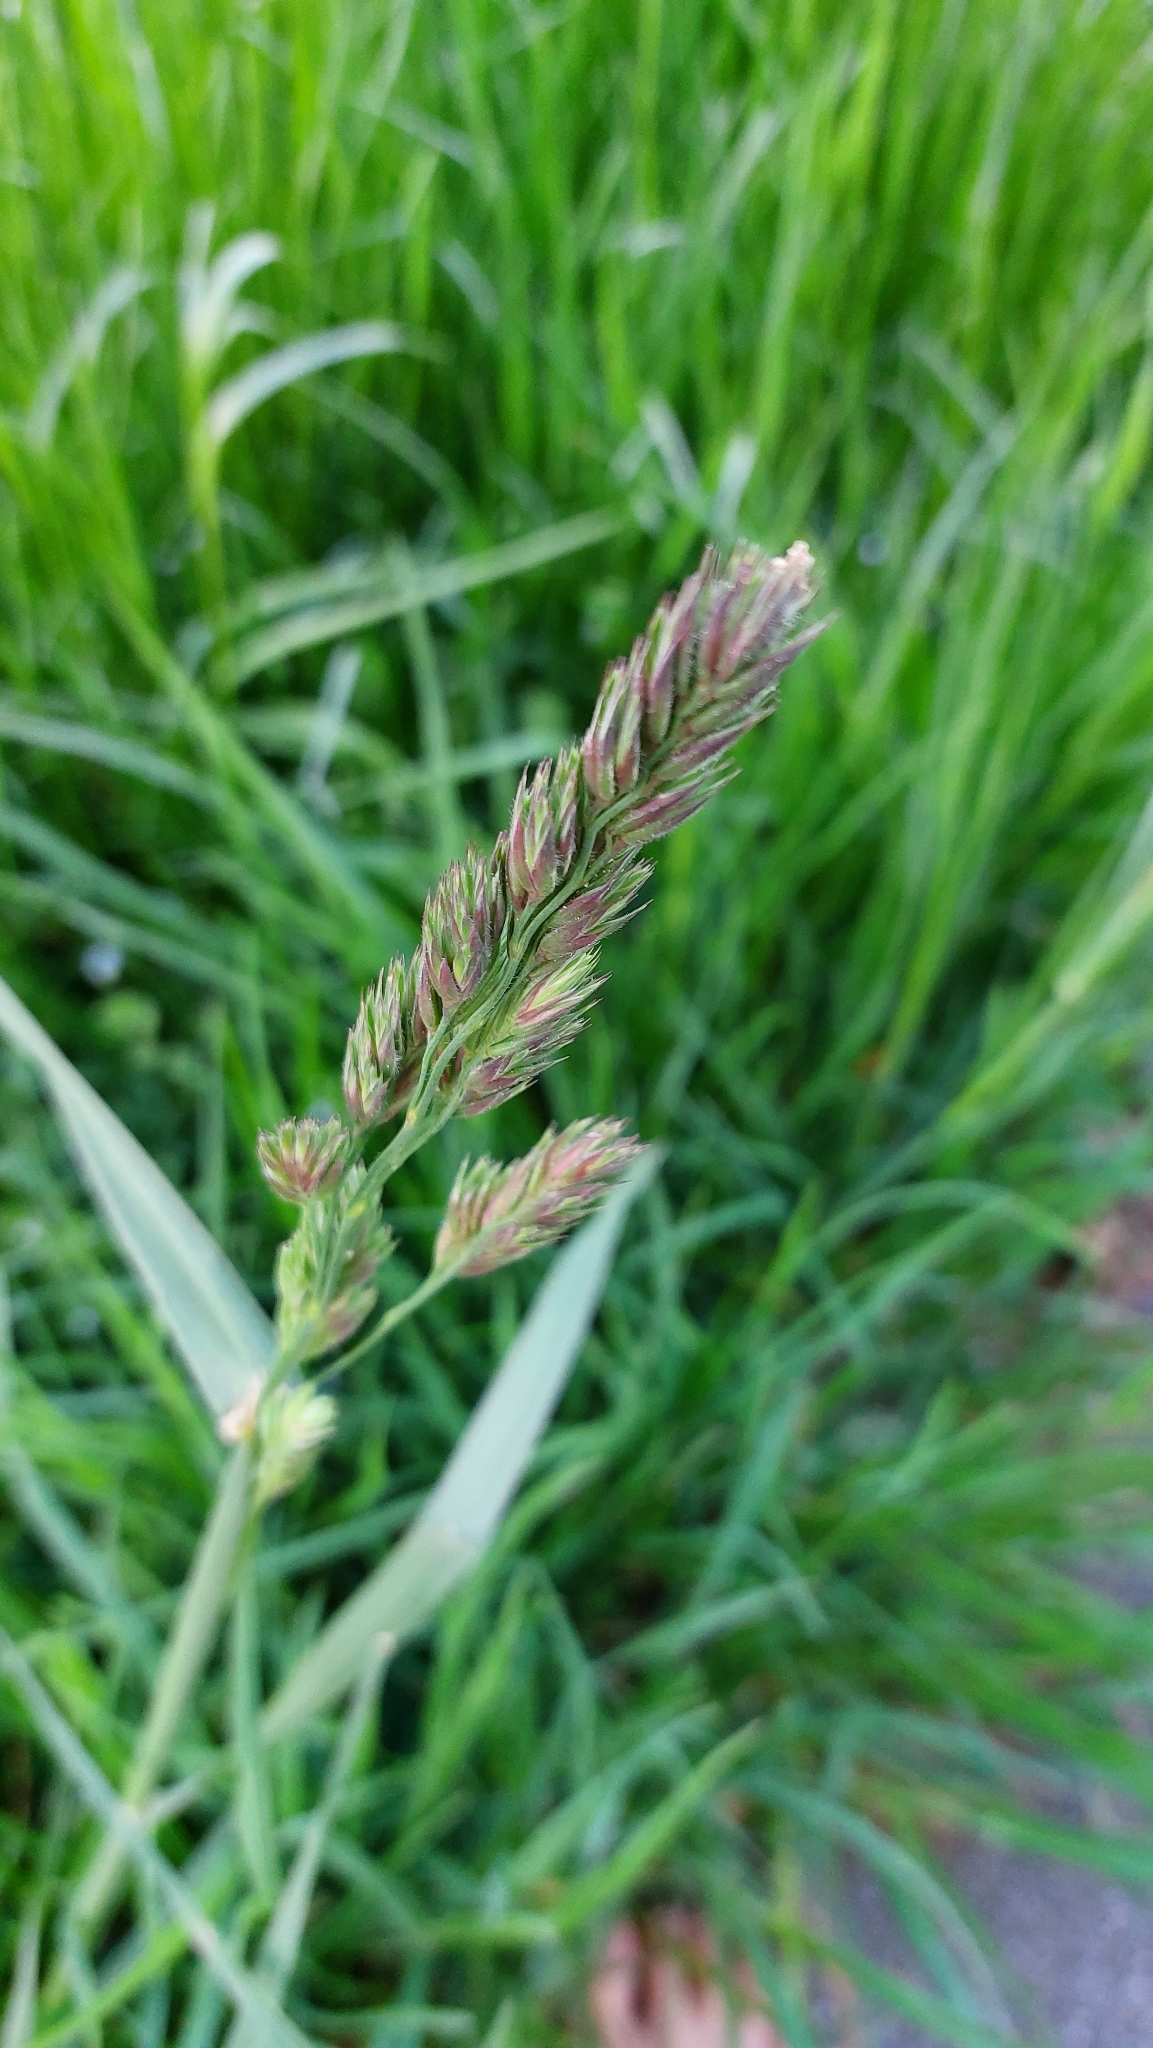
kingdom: Plantae
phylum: Tracheophyta
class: Liliopsida
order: Poales
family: Poaceae
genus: Dactylis
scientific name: Dactylis glomerata
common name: Orchardgrass
